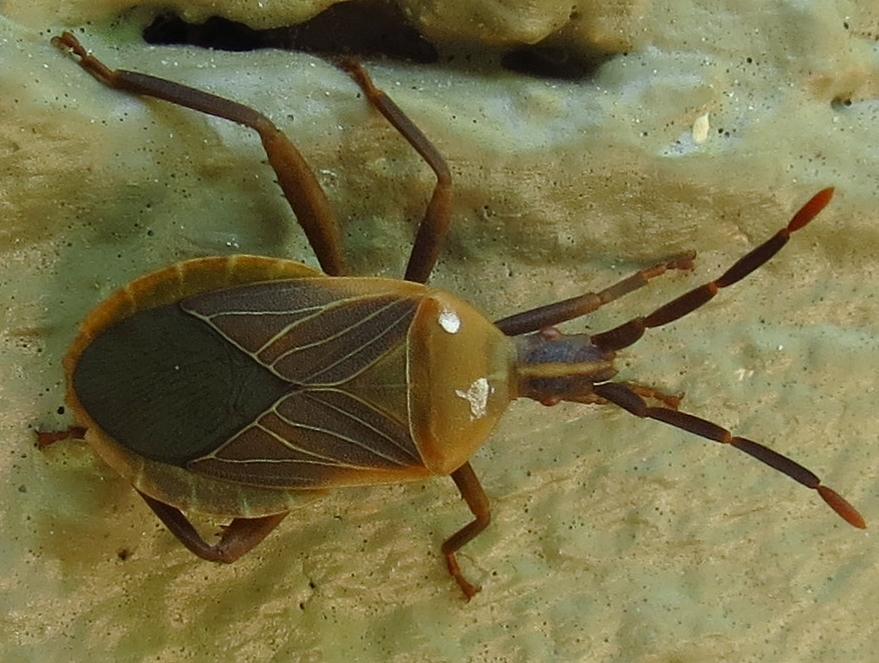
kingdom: Animalia
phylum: Arthropoda
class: Insecta
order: Hemiptera
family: Coreidae
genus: Chelinidea
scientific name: Chelinidea vittiger
